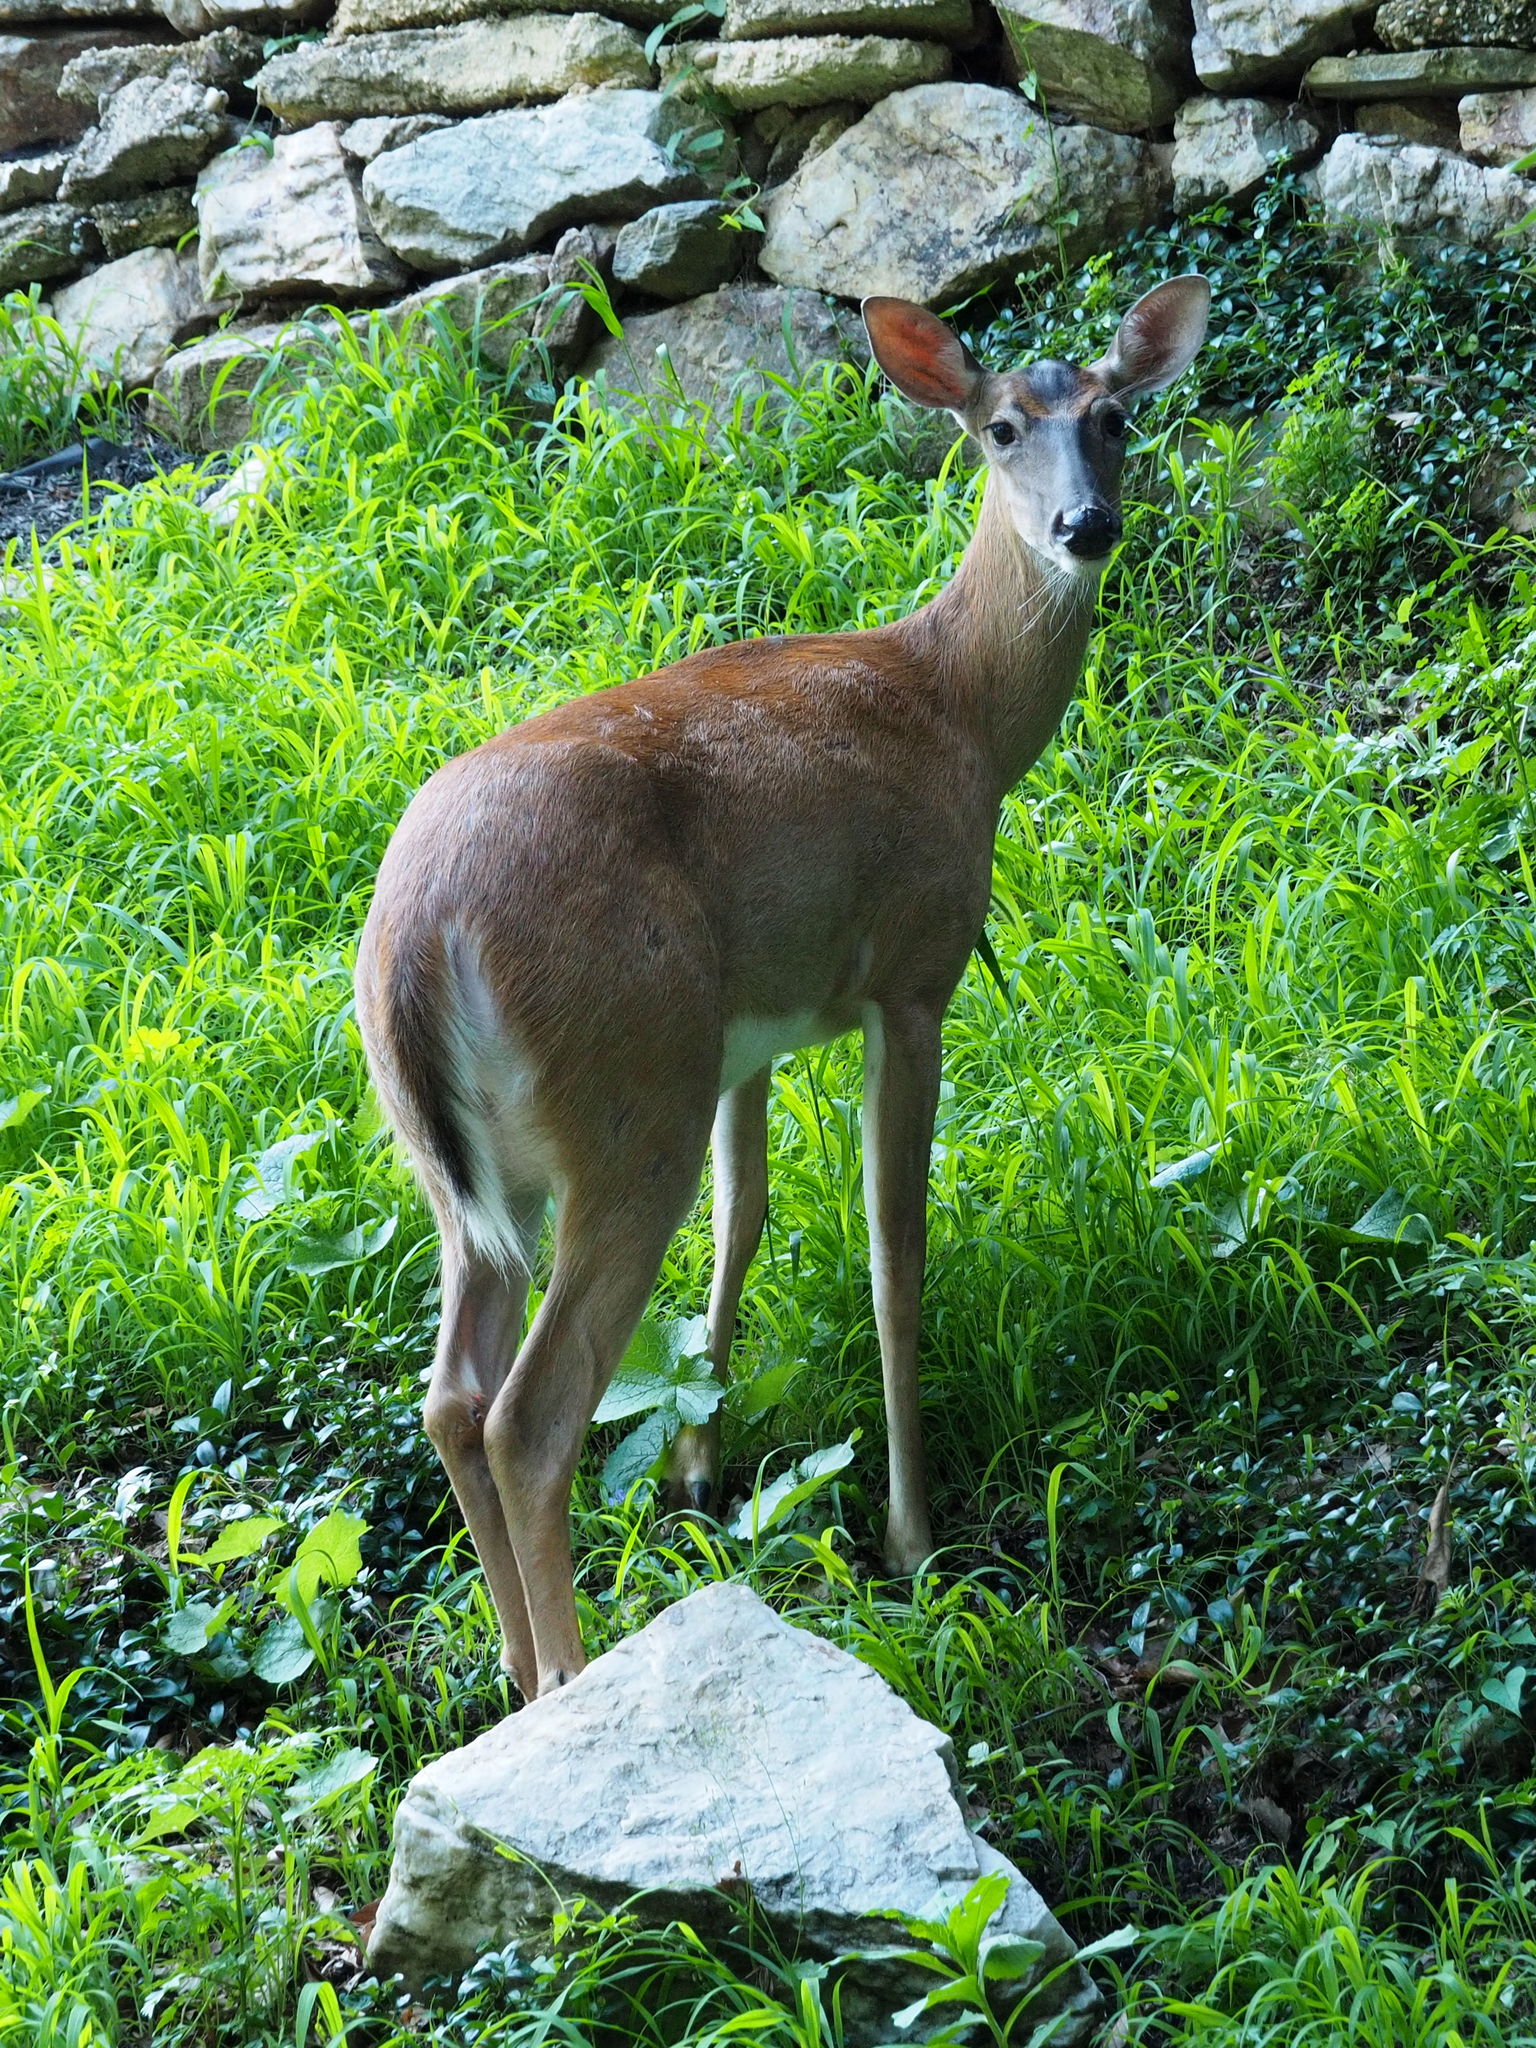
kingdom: Animalia
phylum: Chordata
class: Mammalia
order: Artiodactyla
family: Cervidae
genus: Odocoileus
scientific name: Odocoileus virginianus
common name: White-tailed deer
